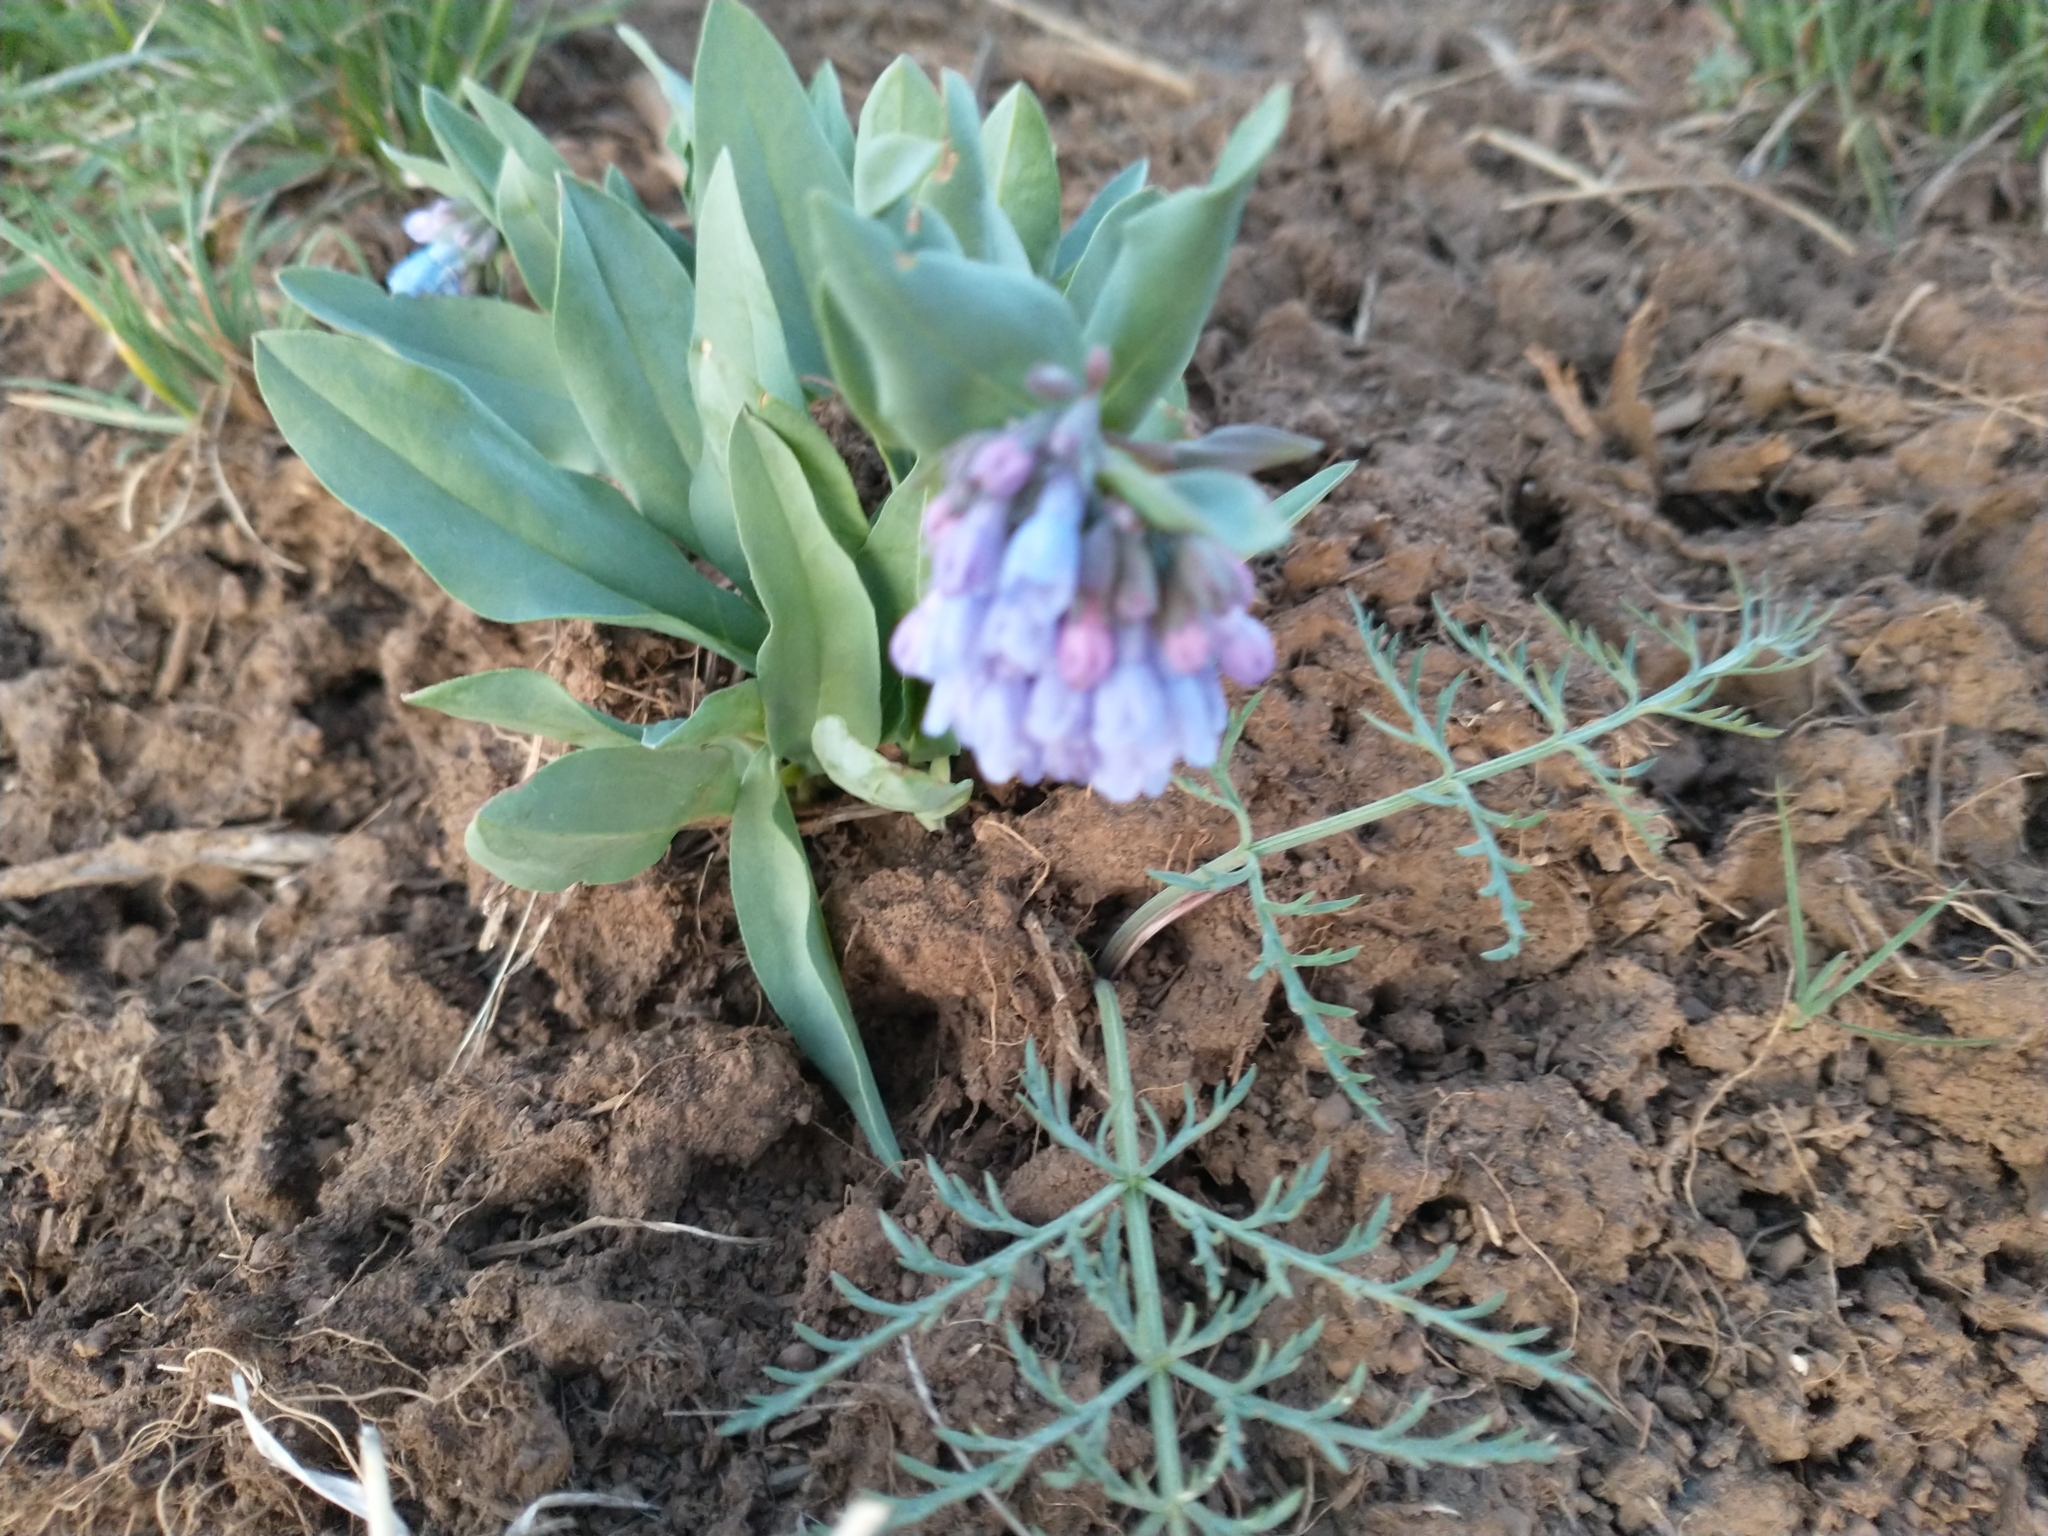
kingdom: Plantae
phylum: Tracheophyta
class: Magnoliopsida
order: Boraginales
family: Boraginaceae
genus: Mertensia
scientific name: Mertensia oblongifolia
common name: Sagebrush bluebells
